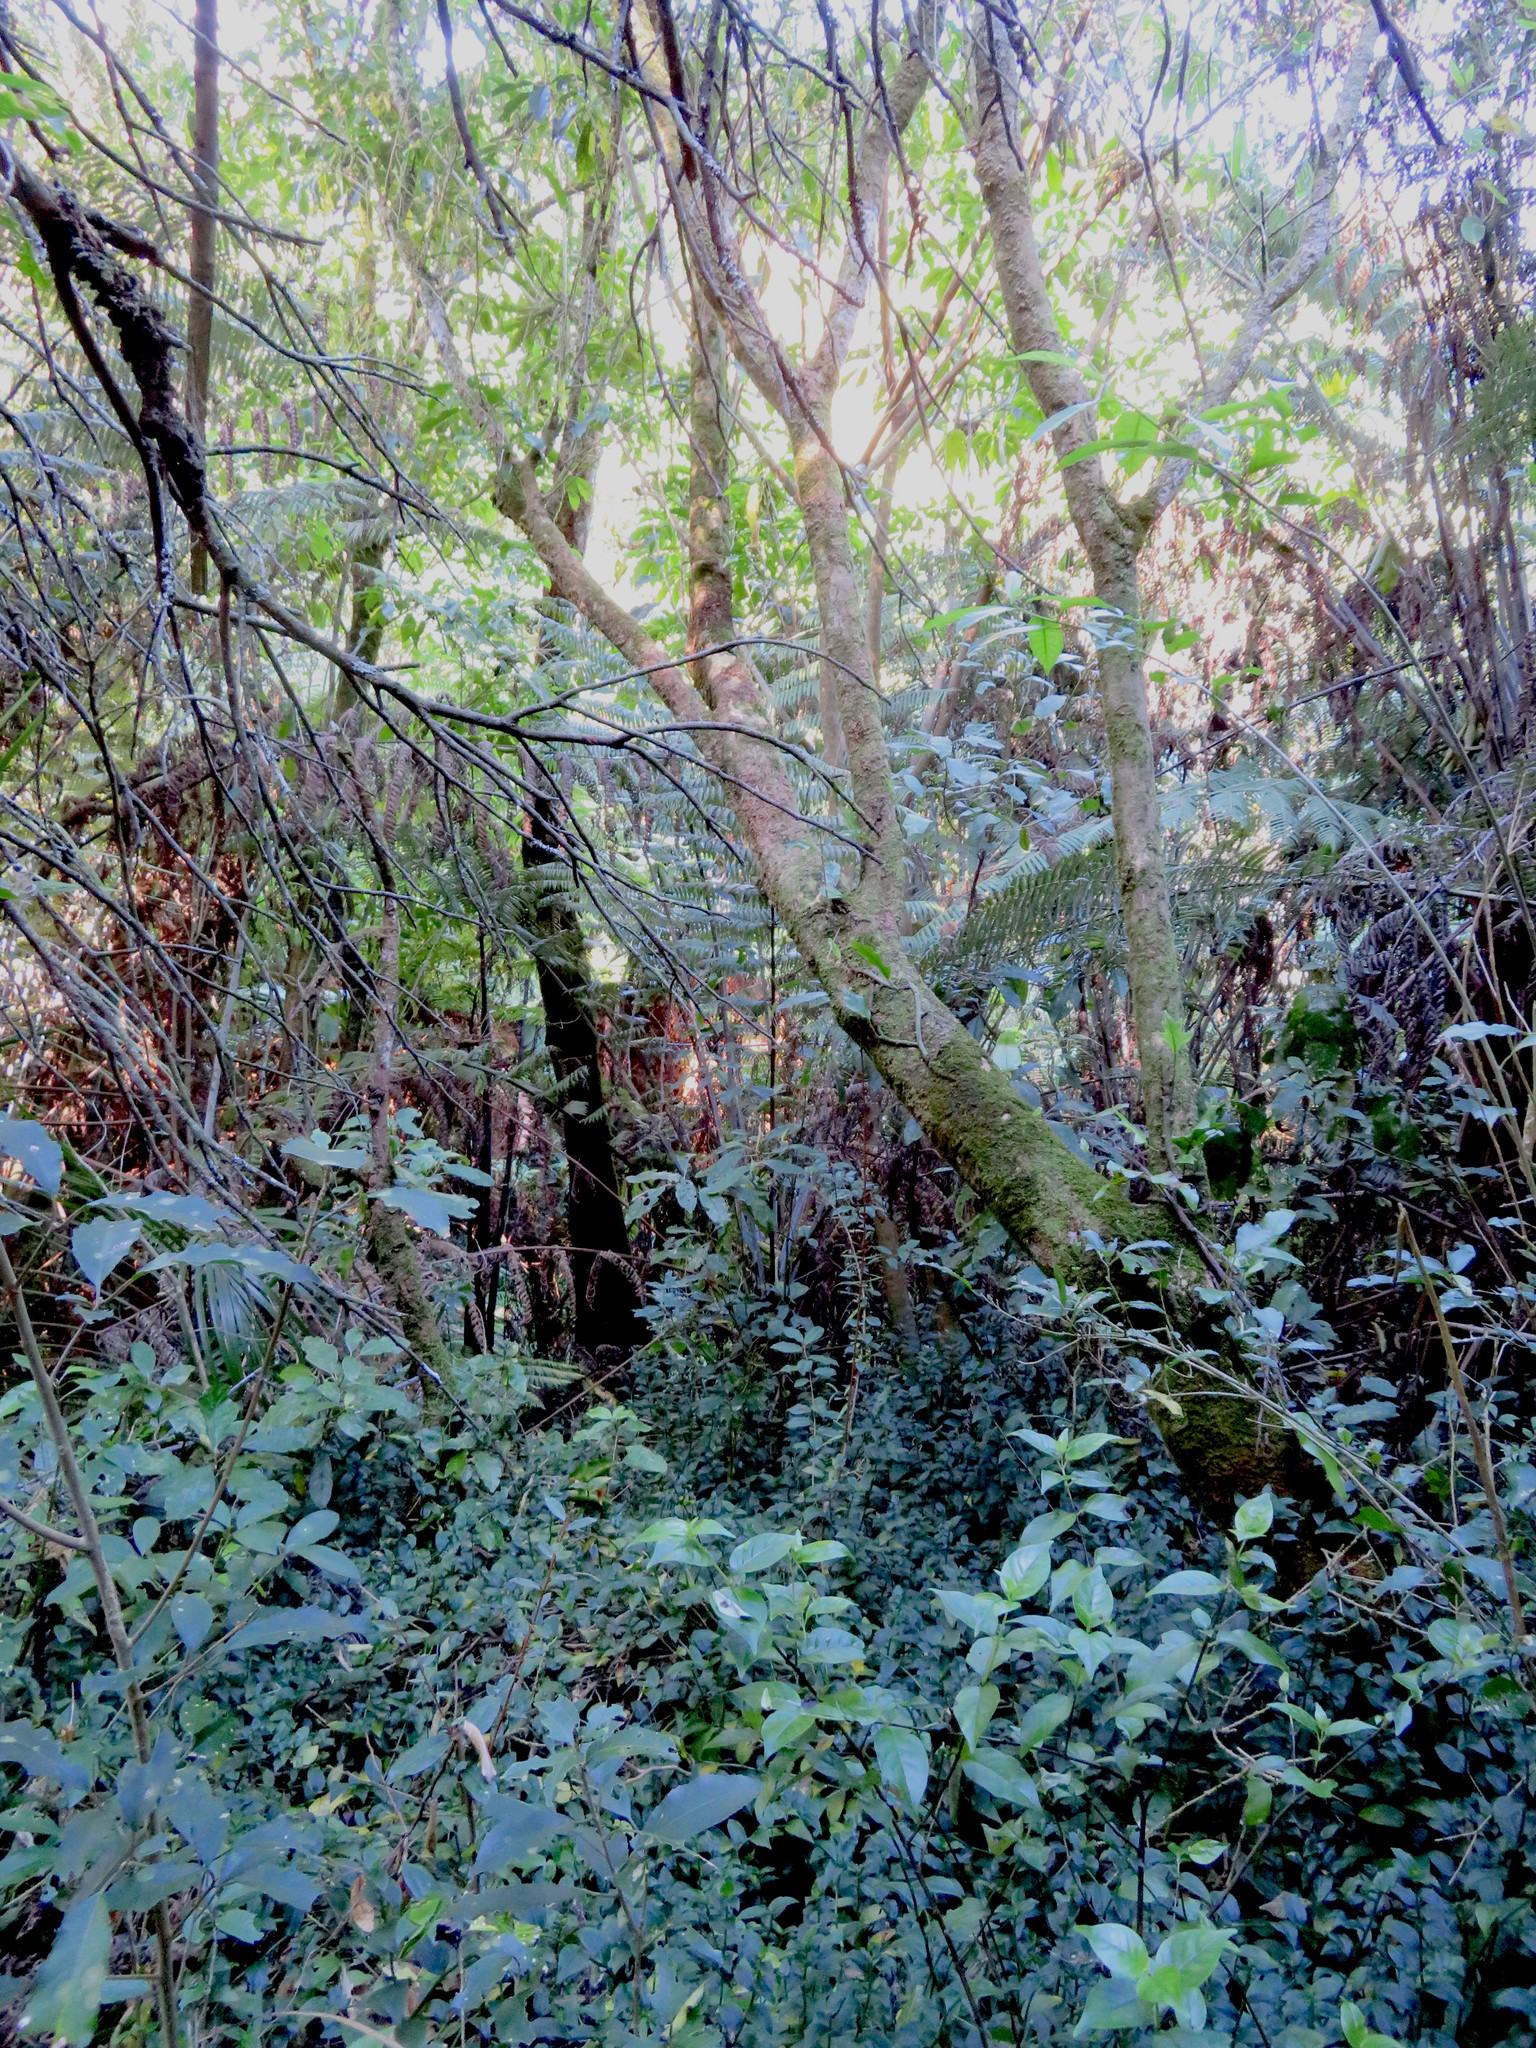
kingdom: Plantae
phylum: Tracheophyta
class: Magnoliopsida
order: Gentianales
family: Loganiaceae
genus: Geniostoma
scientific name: Geniostoma ligustrifolium
